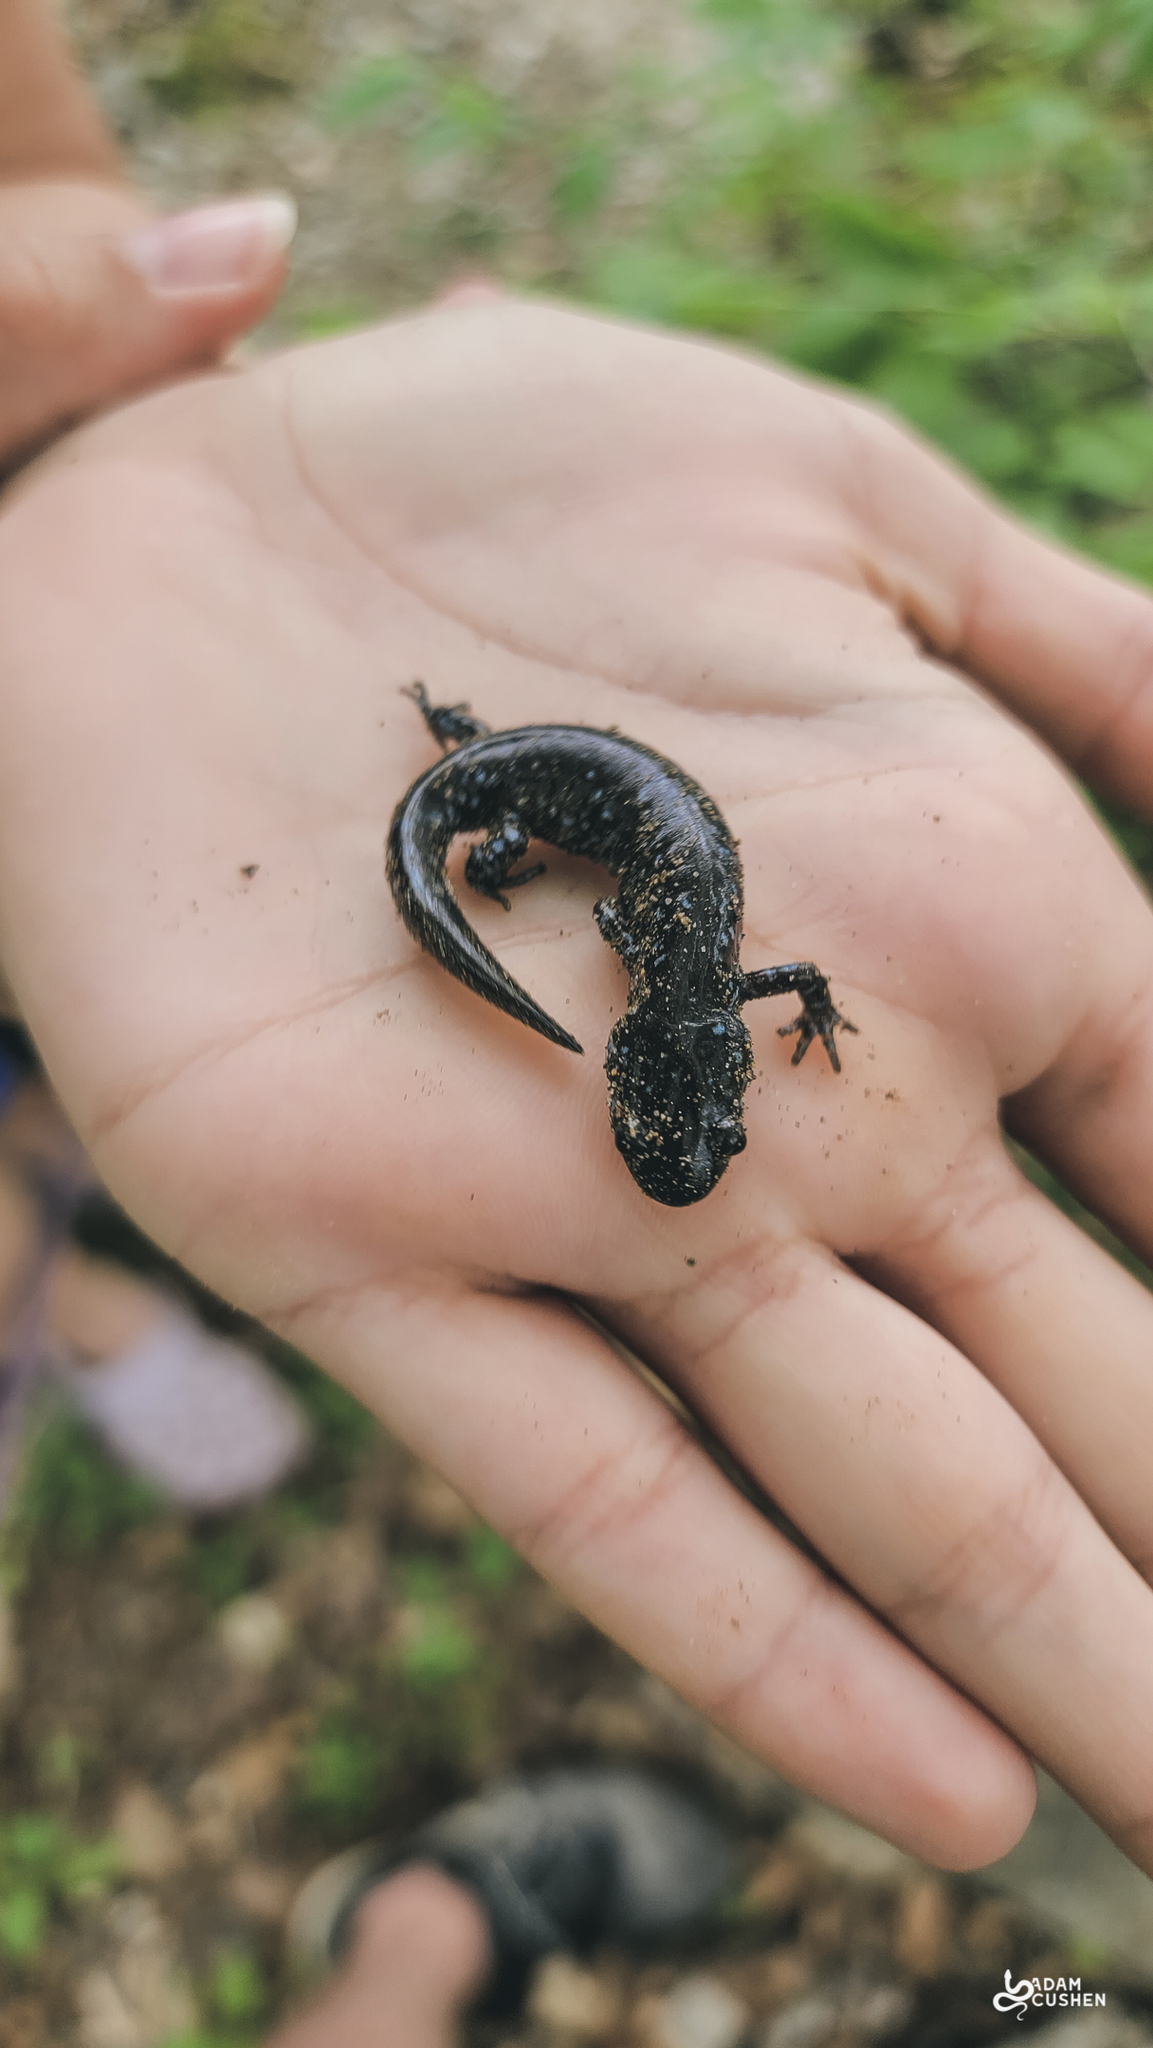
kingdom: Animalia
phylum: Chordata
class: Amphibia
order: Caudata
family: Ambystomatidae
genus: Ambystoma
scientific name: Ambystoma laterale
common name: Blue-spotted salamander
